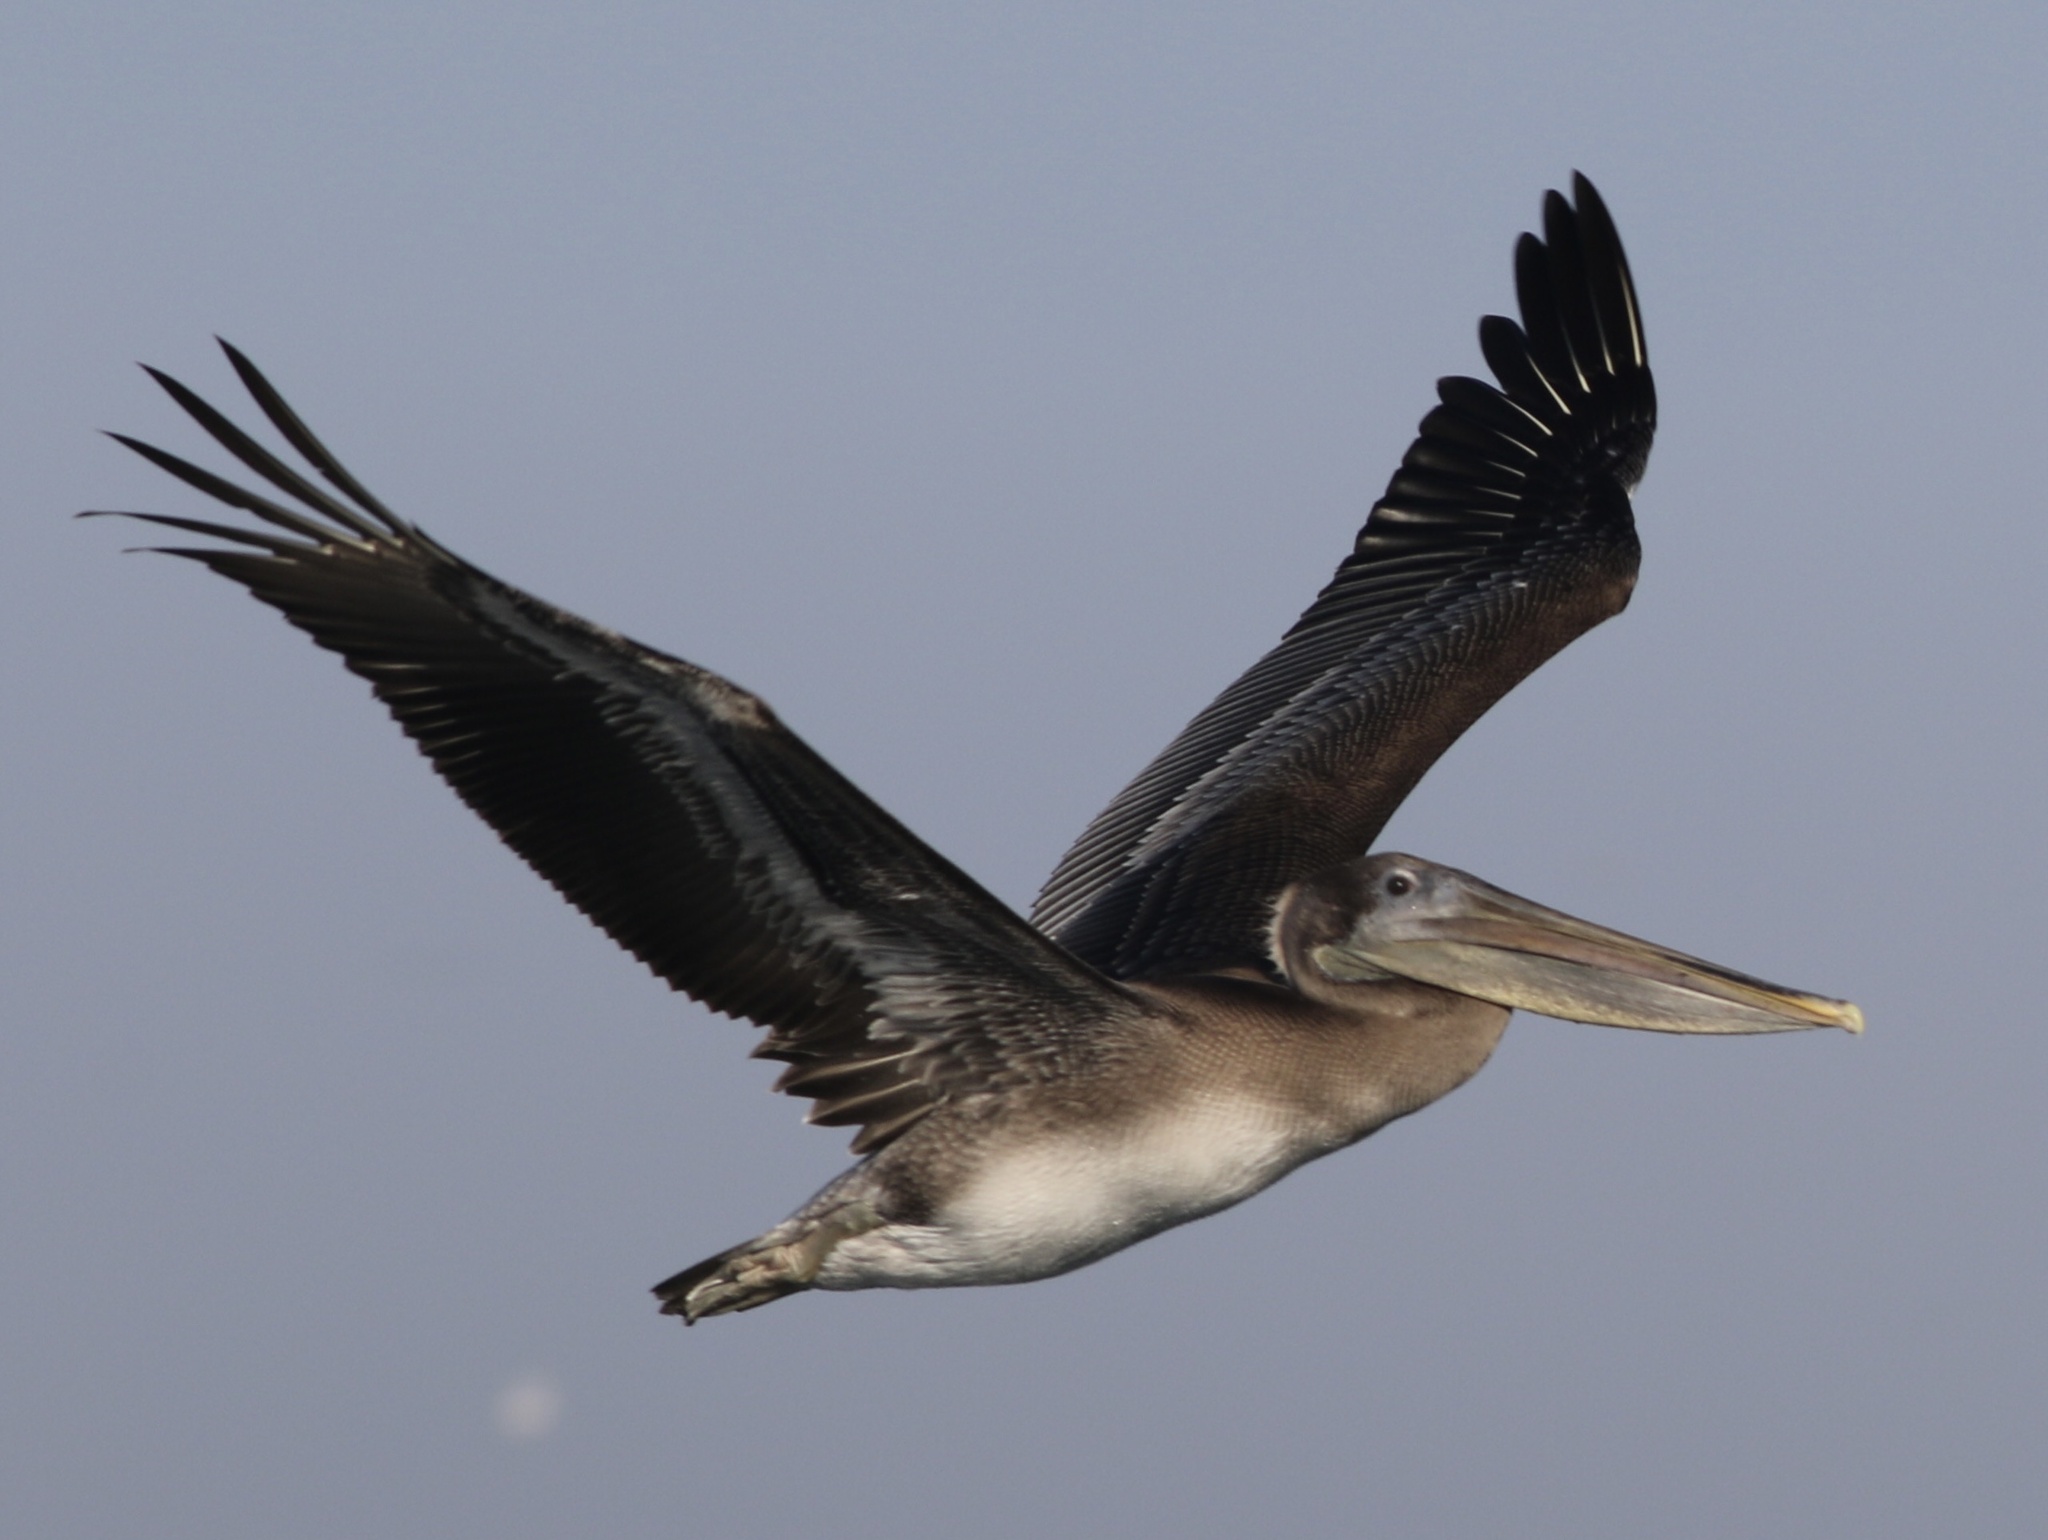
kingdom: Animalia
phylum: Chordata
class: Aves
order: Pelecaniformes
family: Pelecanidae
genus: Pelecanus
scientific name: Pelecanus occidentalis
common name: Brown pelican
